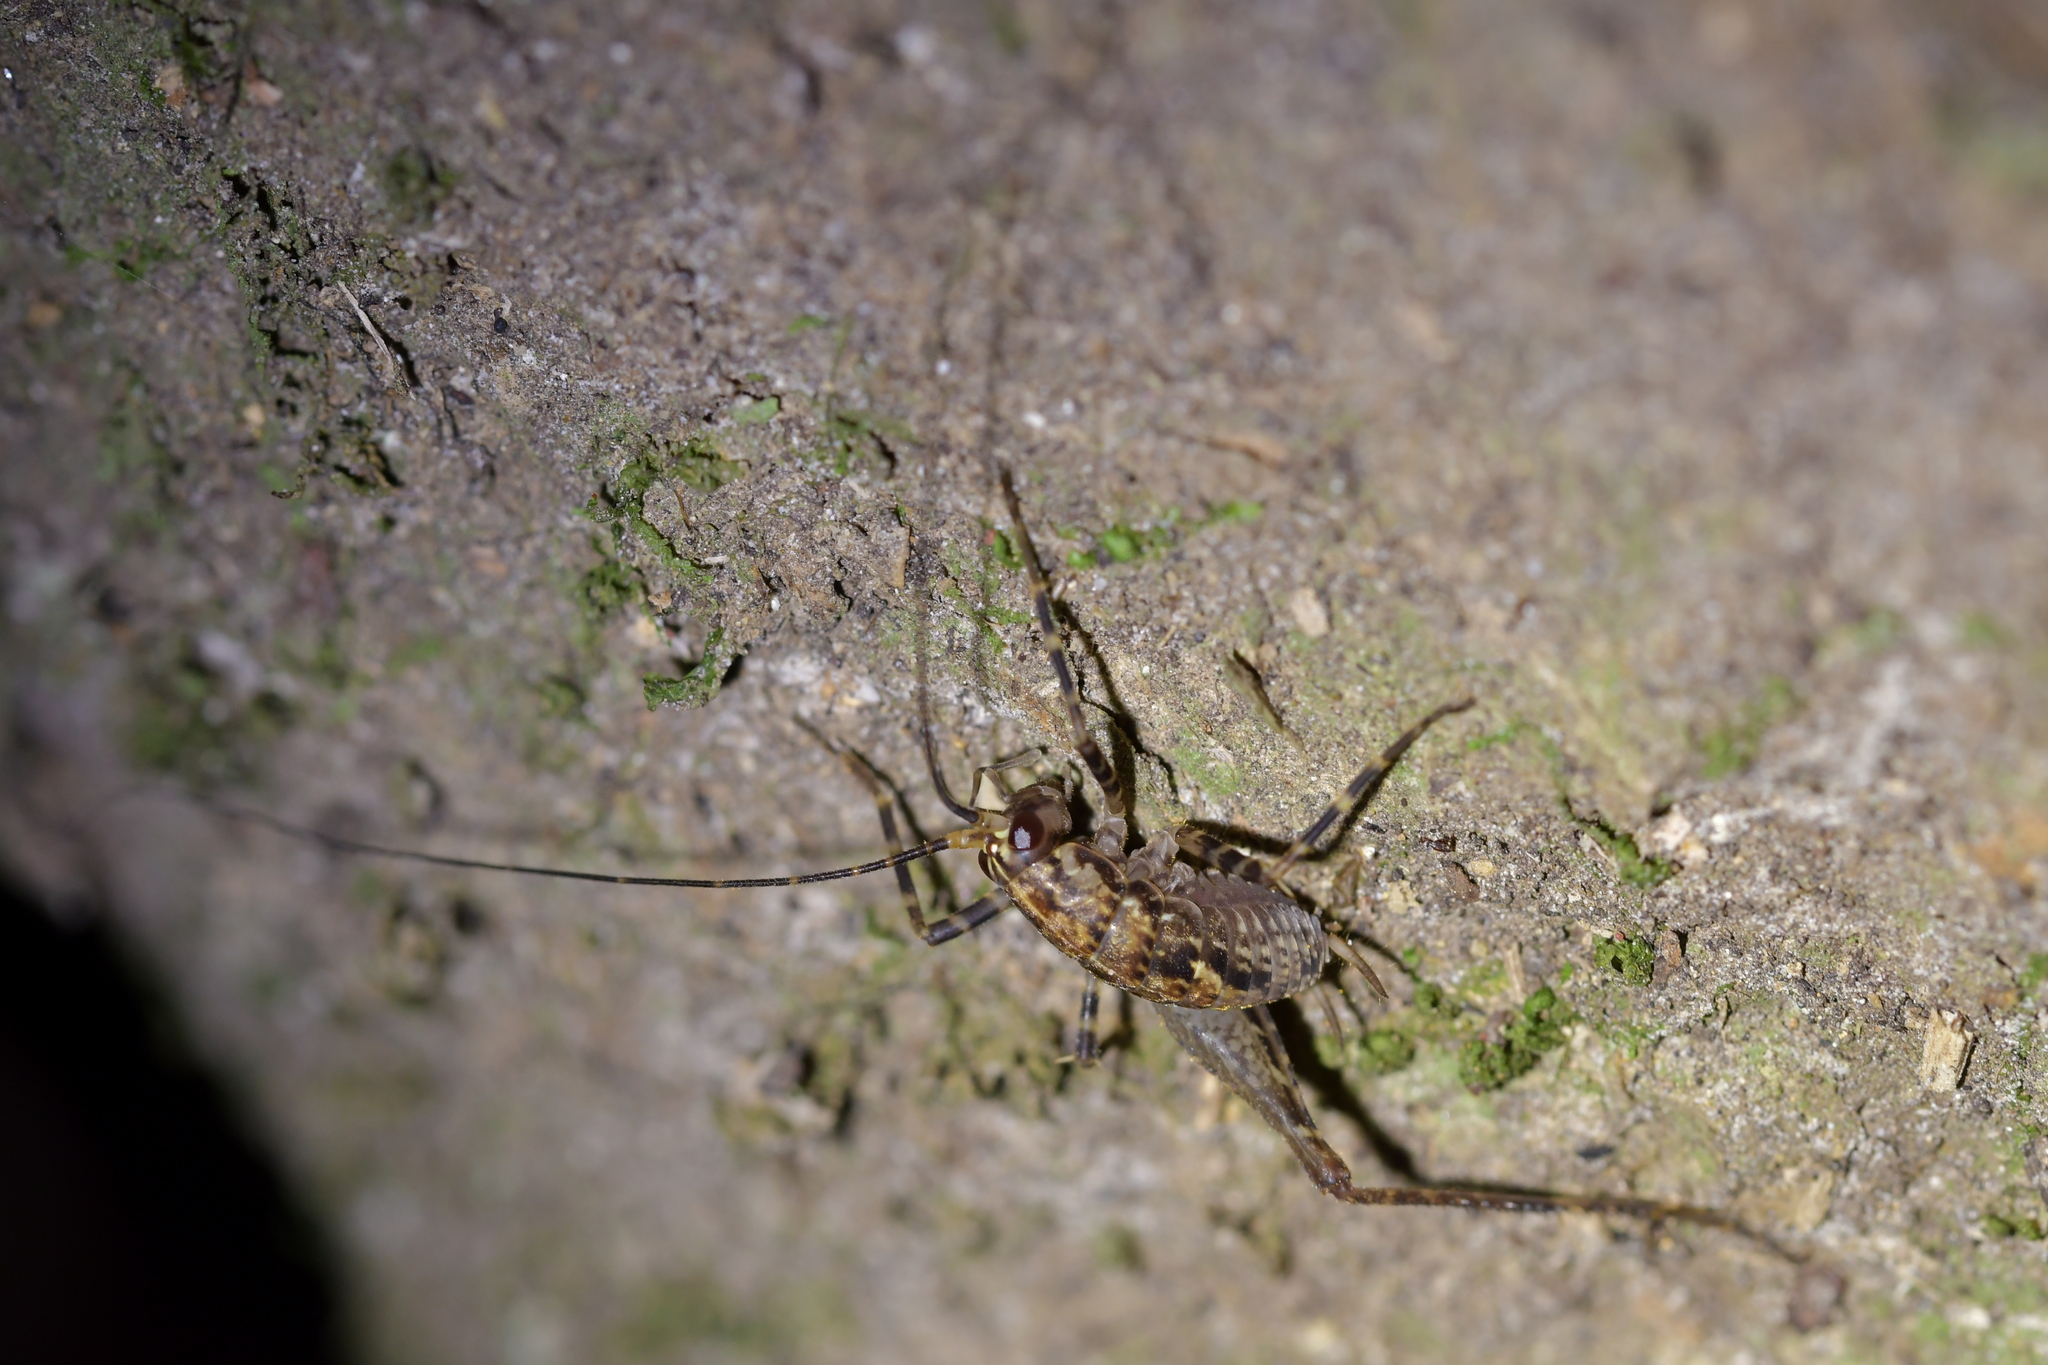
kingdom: Animalia
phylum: Arthropoda
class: Insecta
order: Orthoptera
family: Rhaphidophoridae
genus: Pleioplectron
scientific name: Pleioplectron hudsoni
